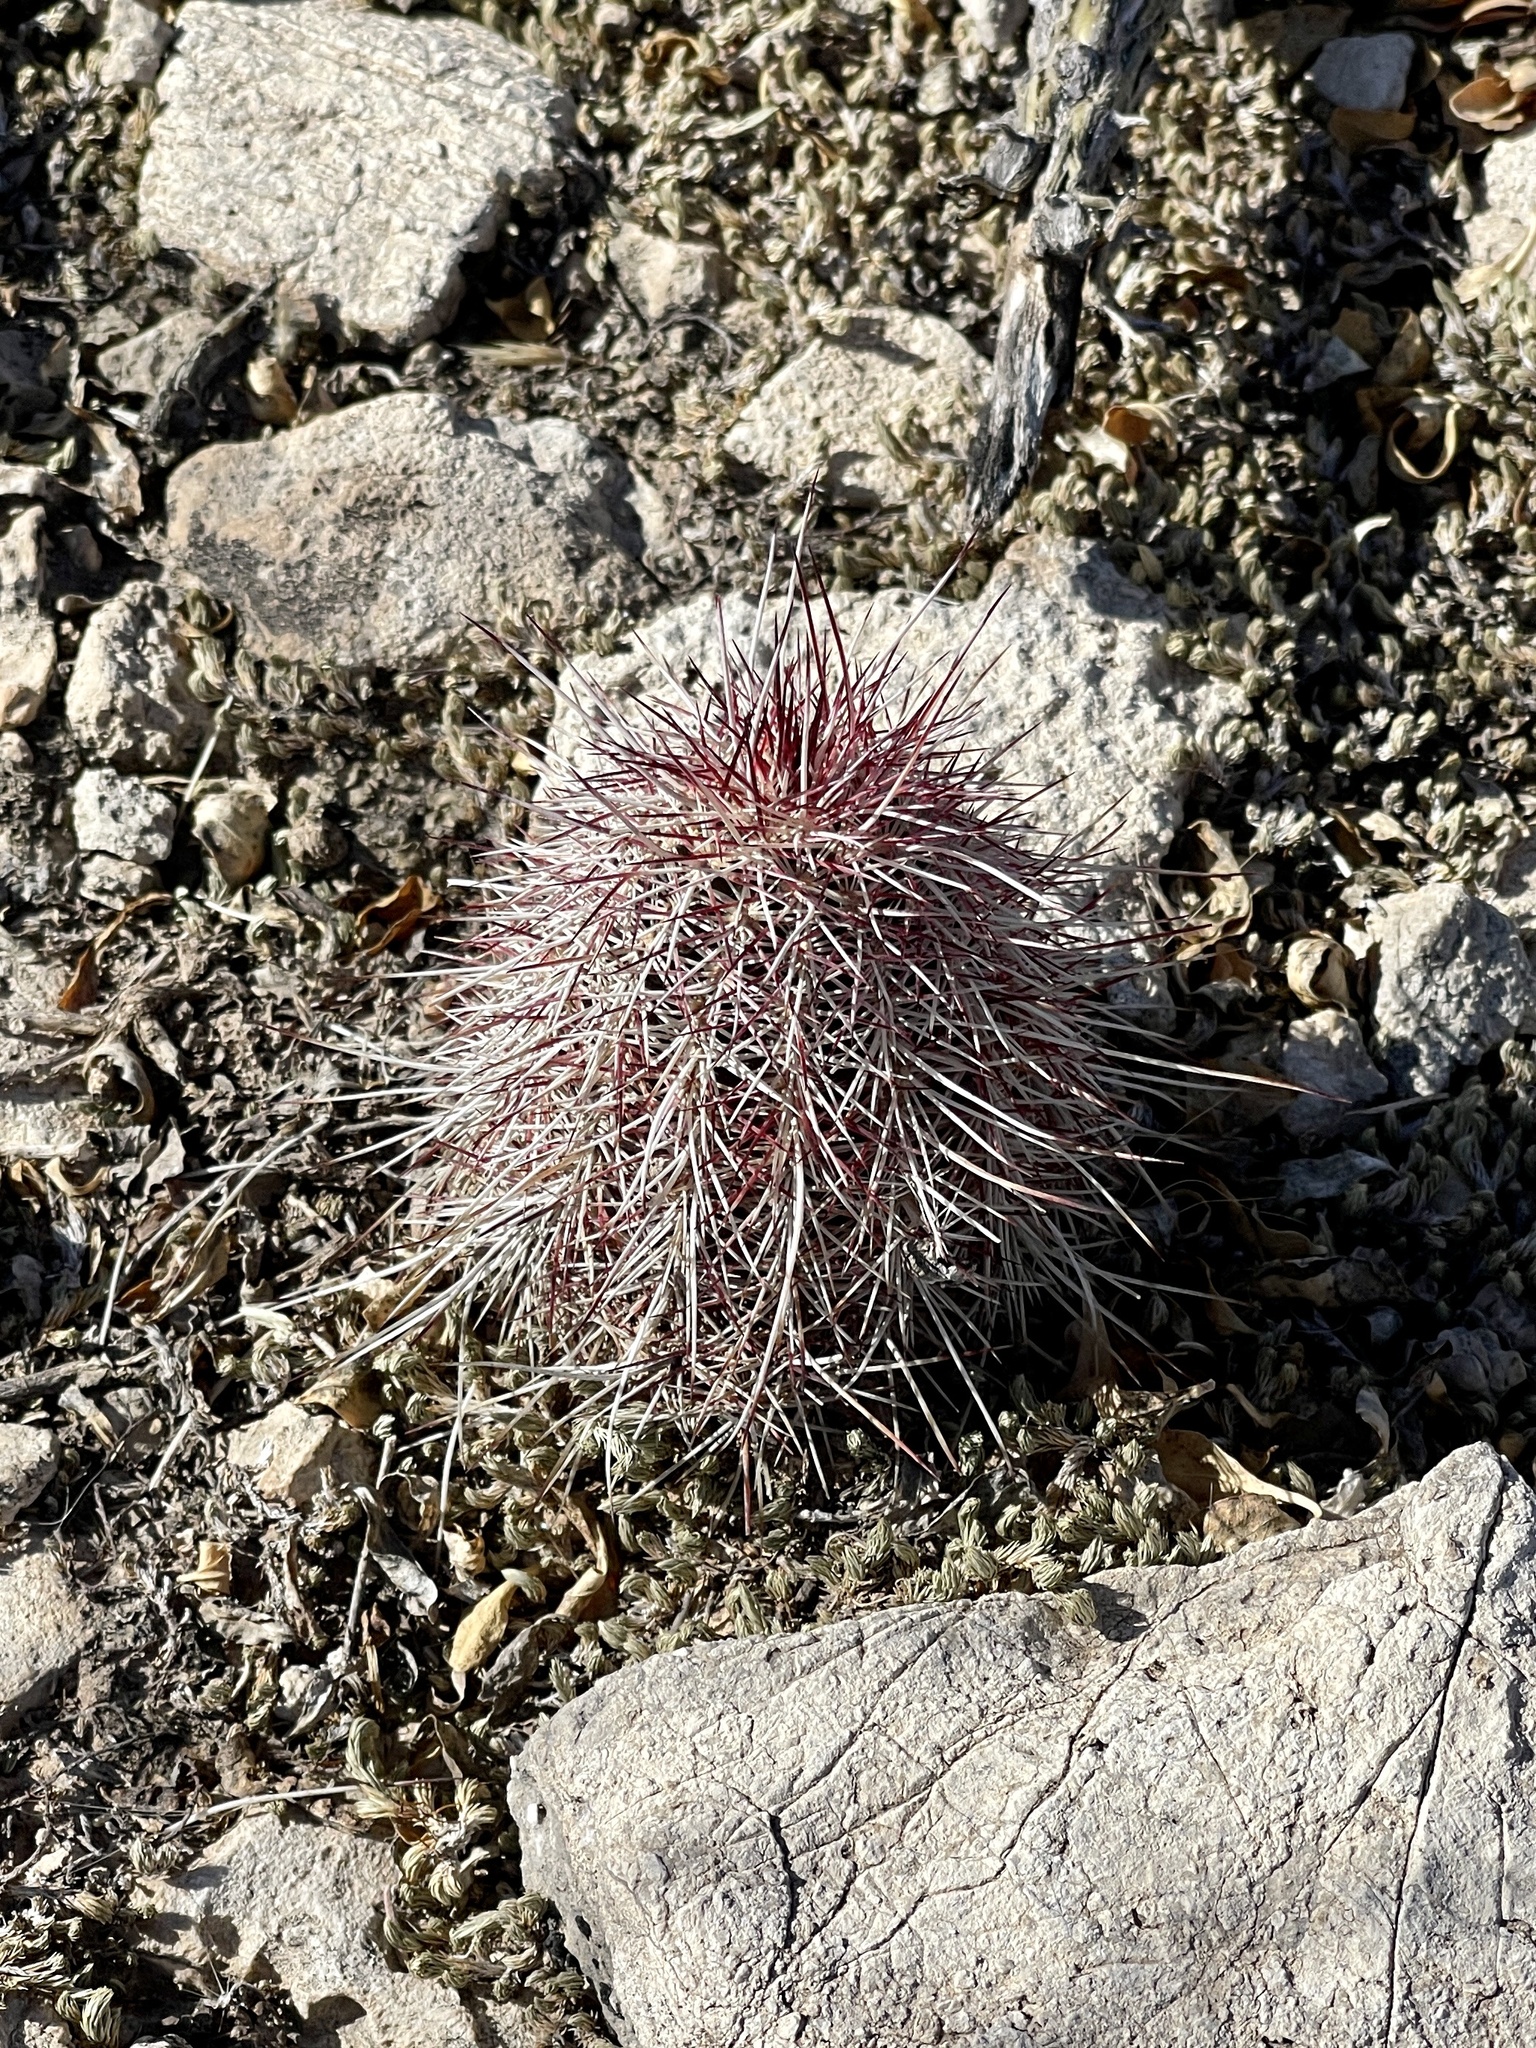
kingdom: Plantae
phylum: Tracheophyta
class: Magnoliopsida
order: Caryophyllales
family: Cactaceae
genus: Echinocereus
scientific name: Echinocereus viridiflorus
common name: Nylon hedgehog cactus
